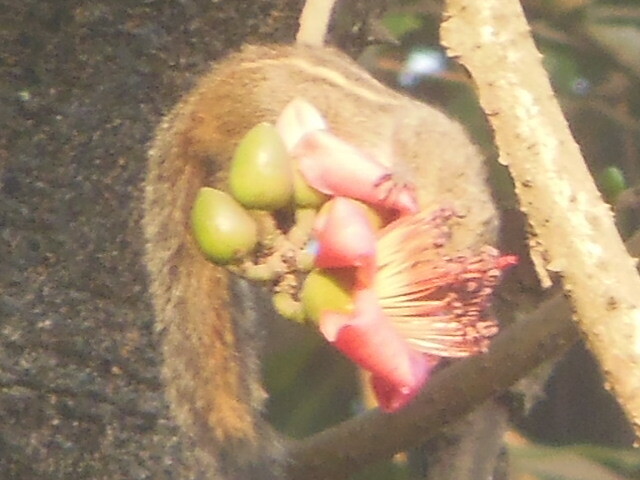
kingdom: Animalia
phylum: Chordata
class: Mammalia
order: Rodentia
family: Sciuridae
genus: Funambulus
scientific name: Funambulus palmarum
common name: Indian palm squirrel
